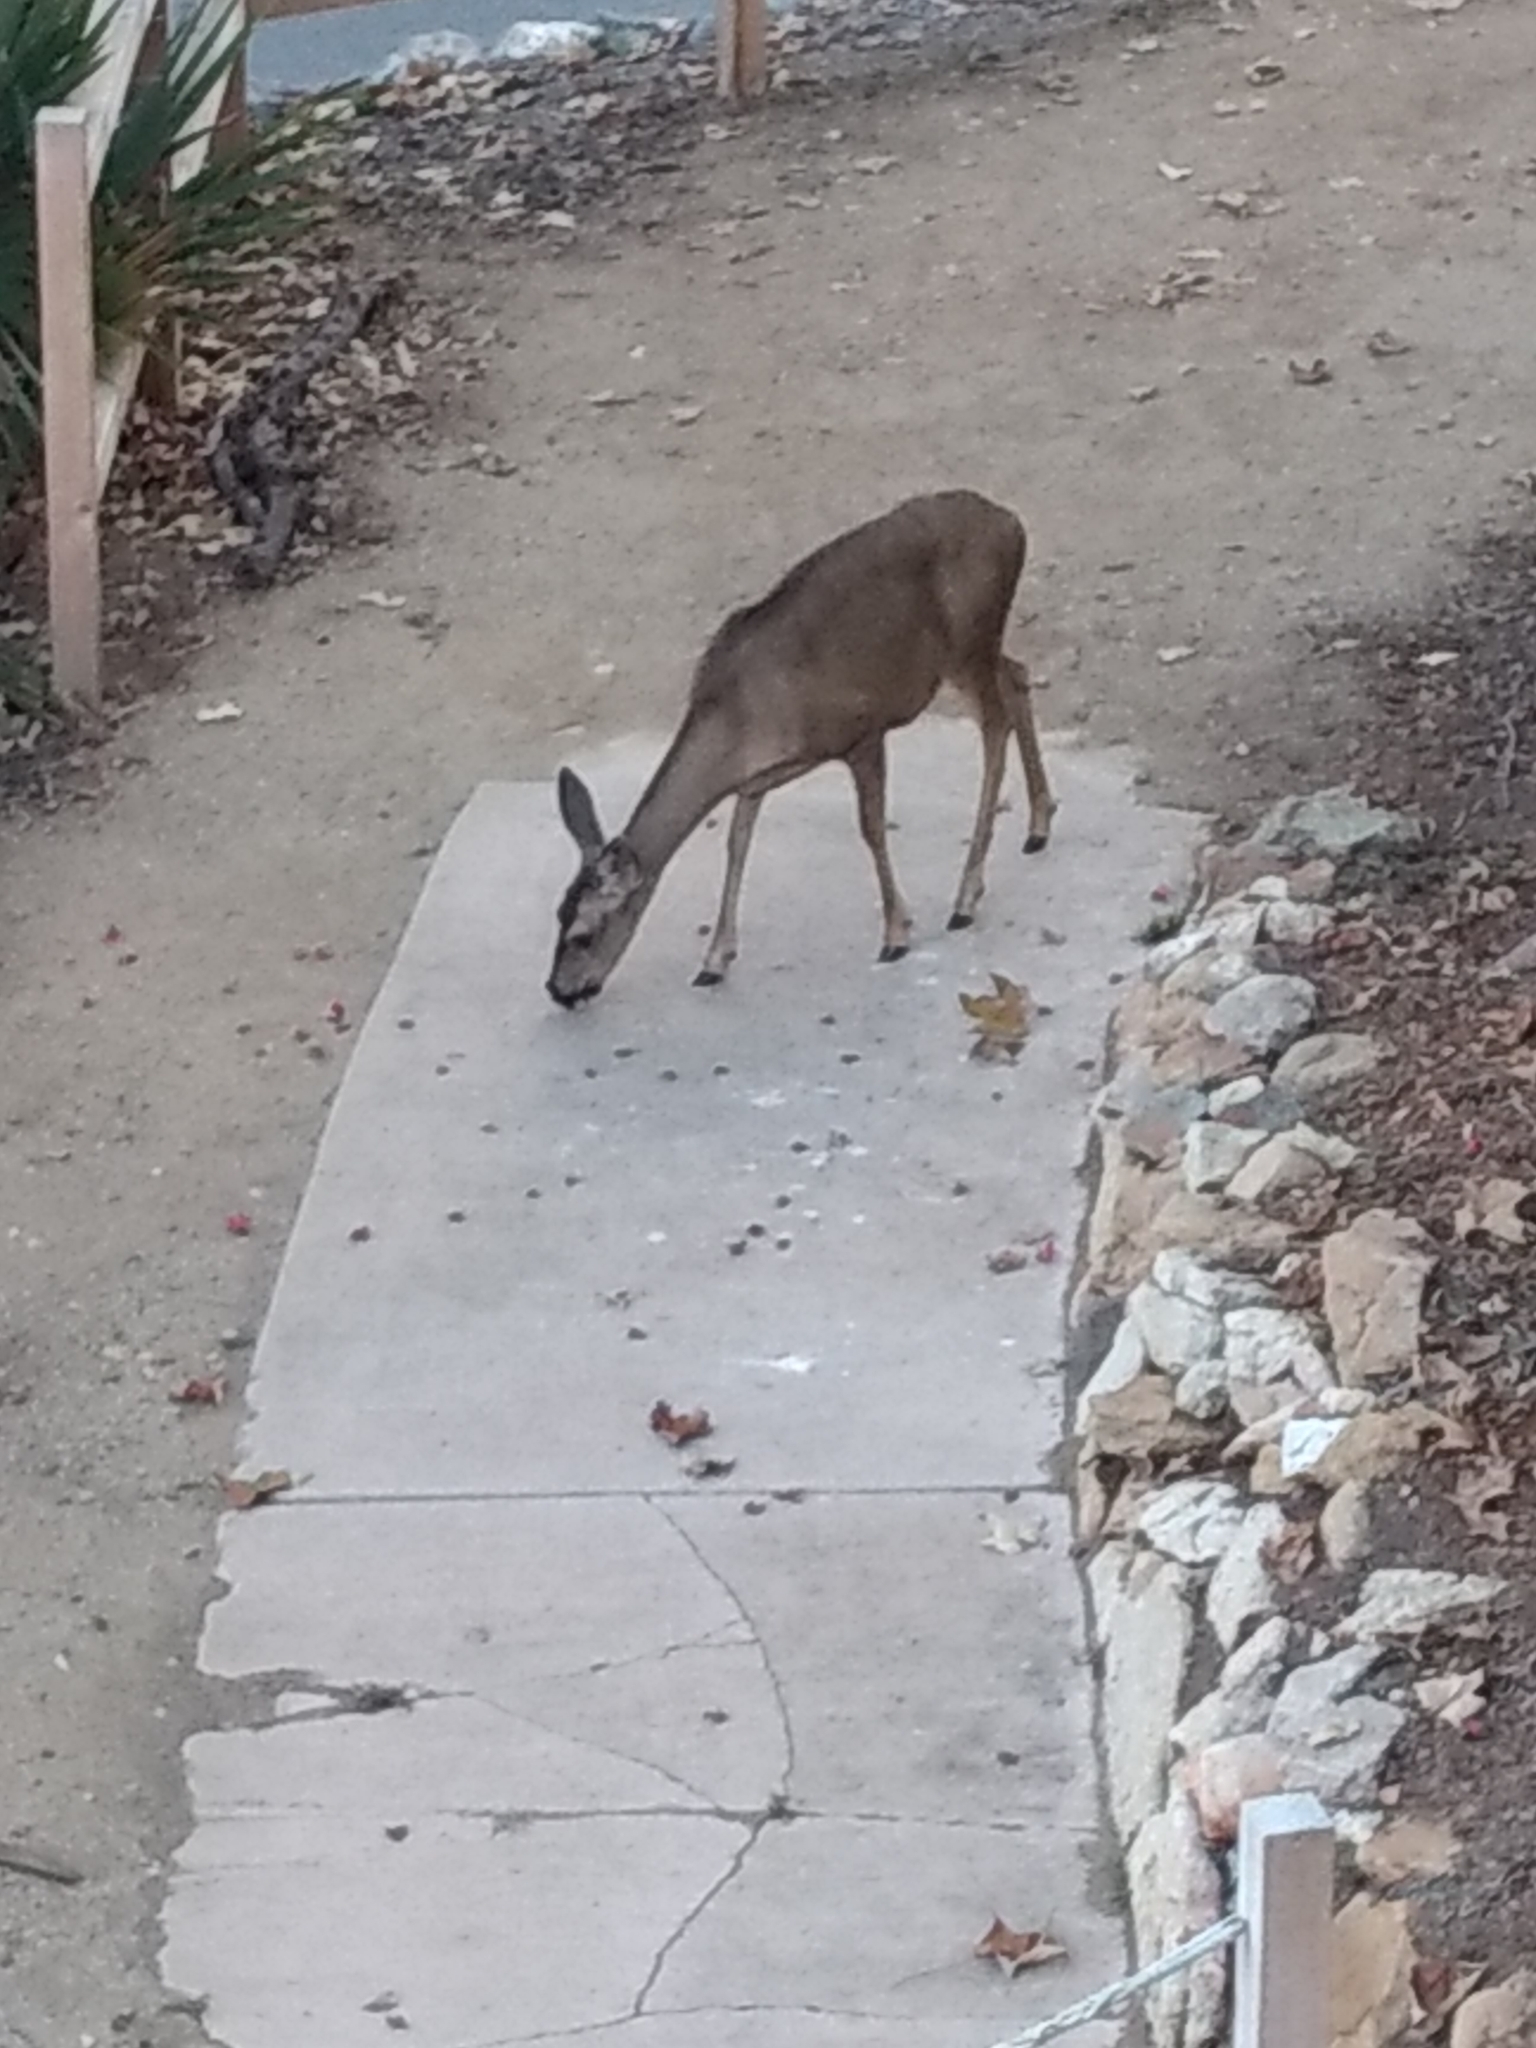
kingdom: Animalia
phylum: Chordata
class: Mammalia
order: Artiodactyla
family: Cervidae
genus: Odocoileus
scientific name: Odocoileus hemionus
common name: Mule deer
